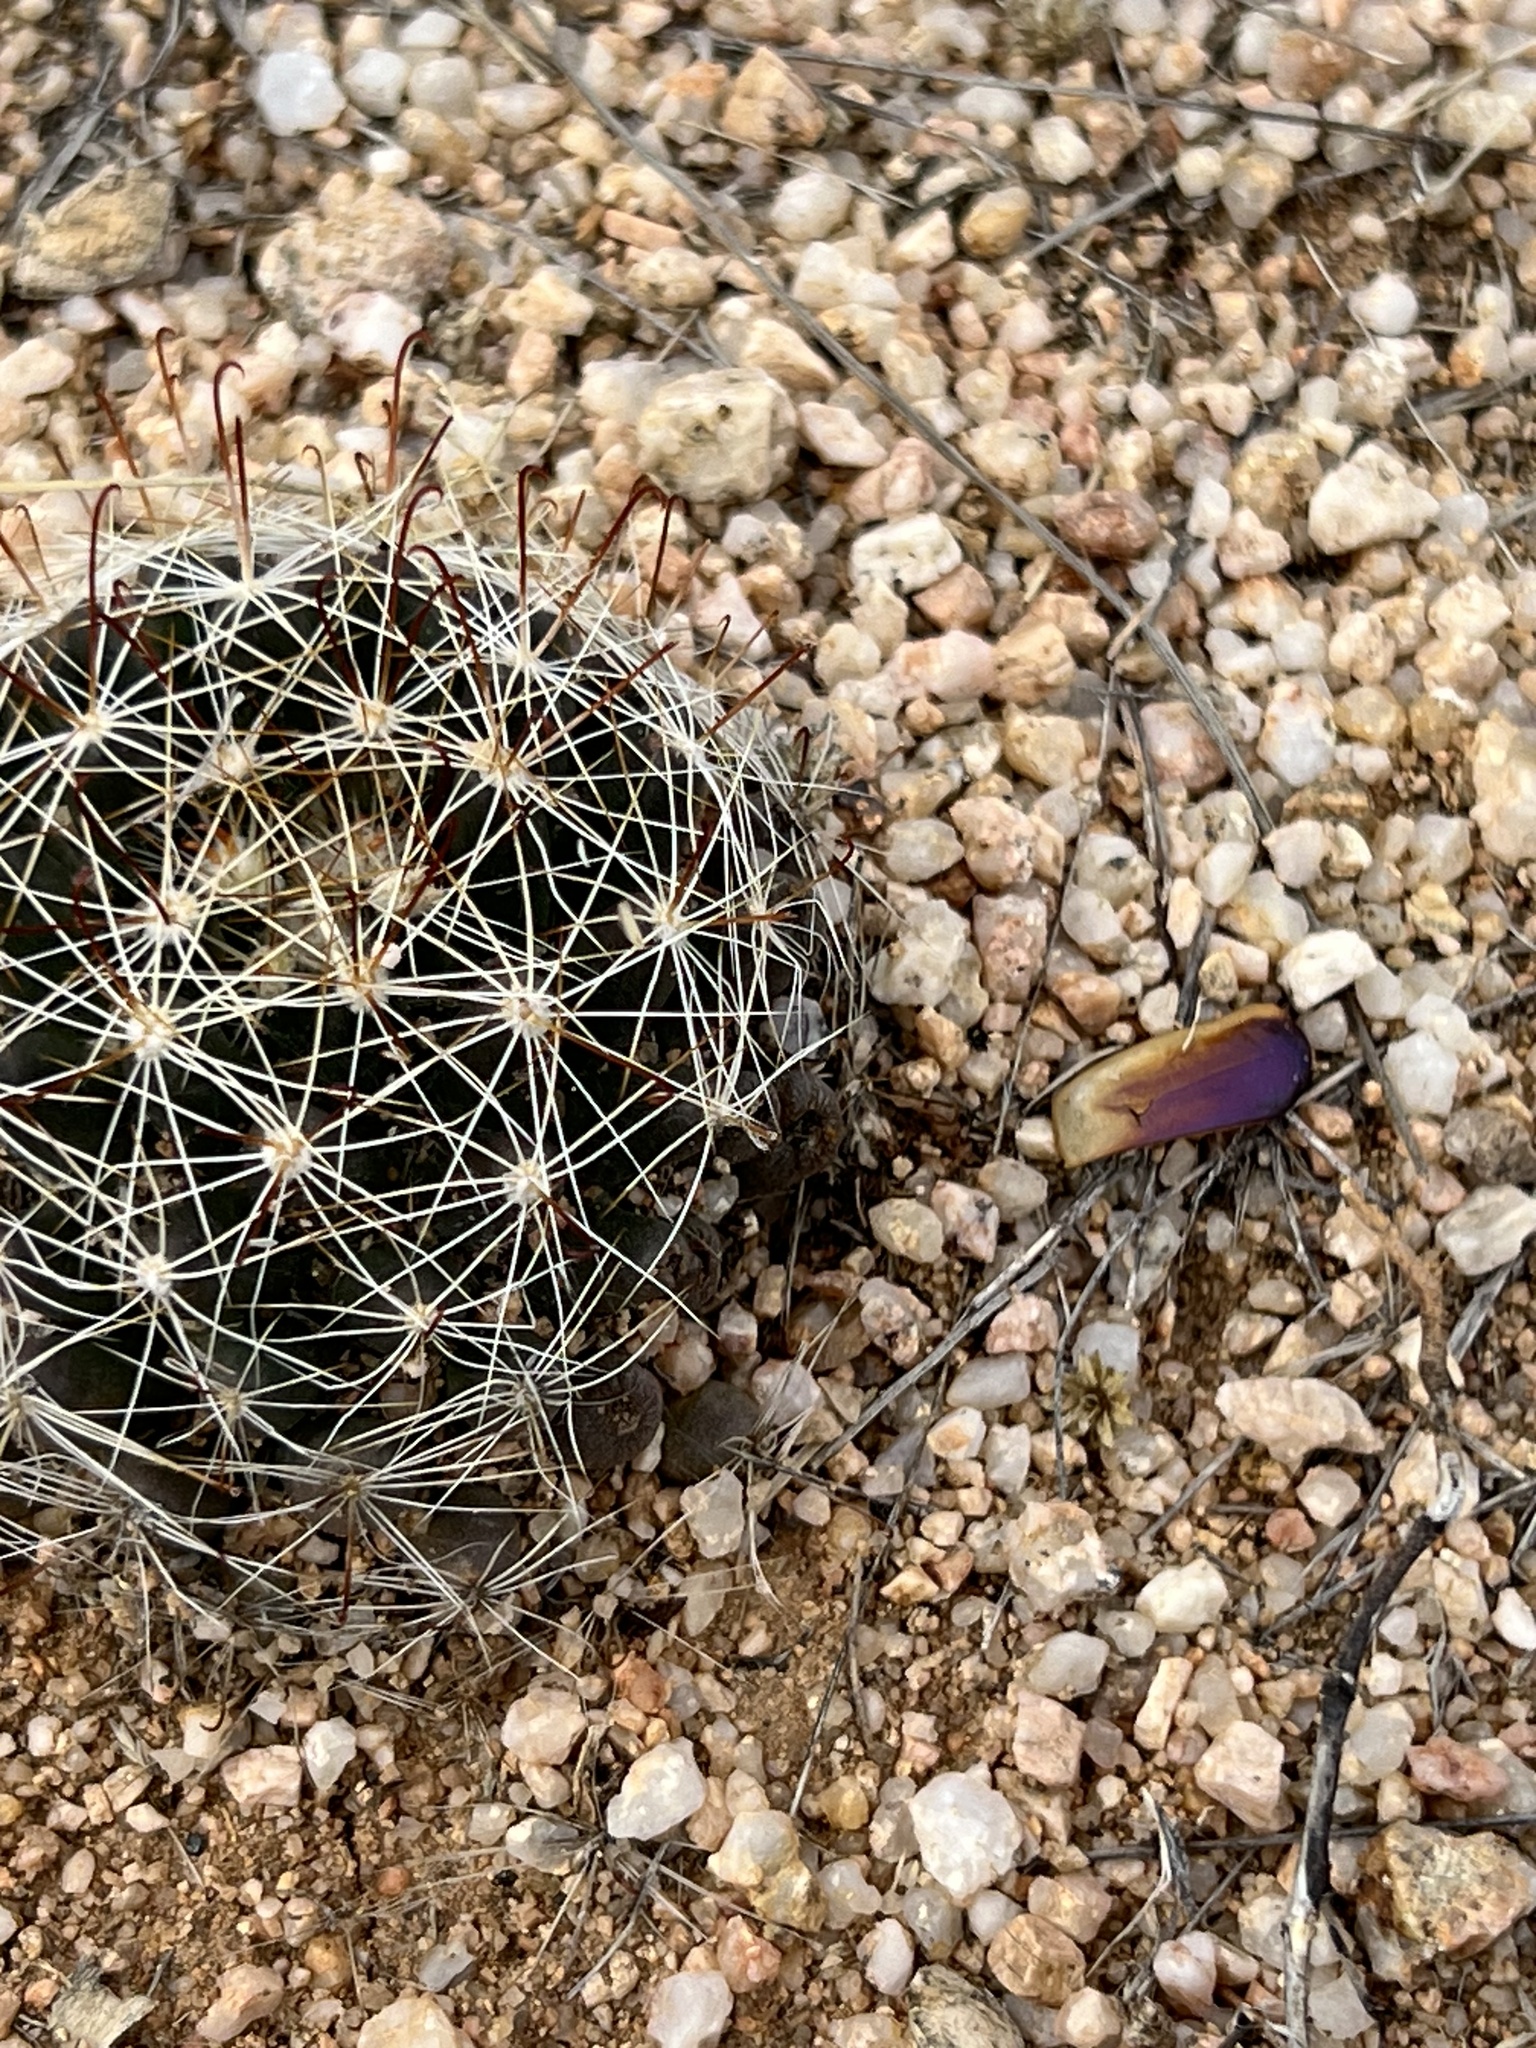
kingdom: Plantae
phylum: Tracheophyta
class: Magnoliopsida
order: Caryophyllales
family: Cactaceae
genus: Cochemiea
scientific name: Cochemiea wrightii
